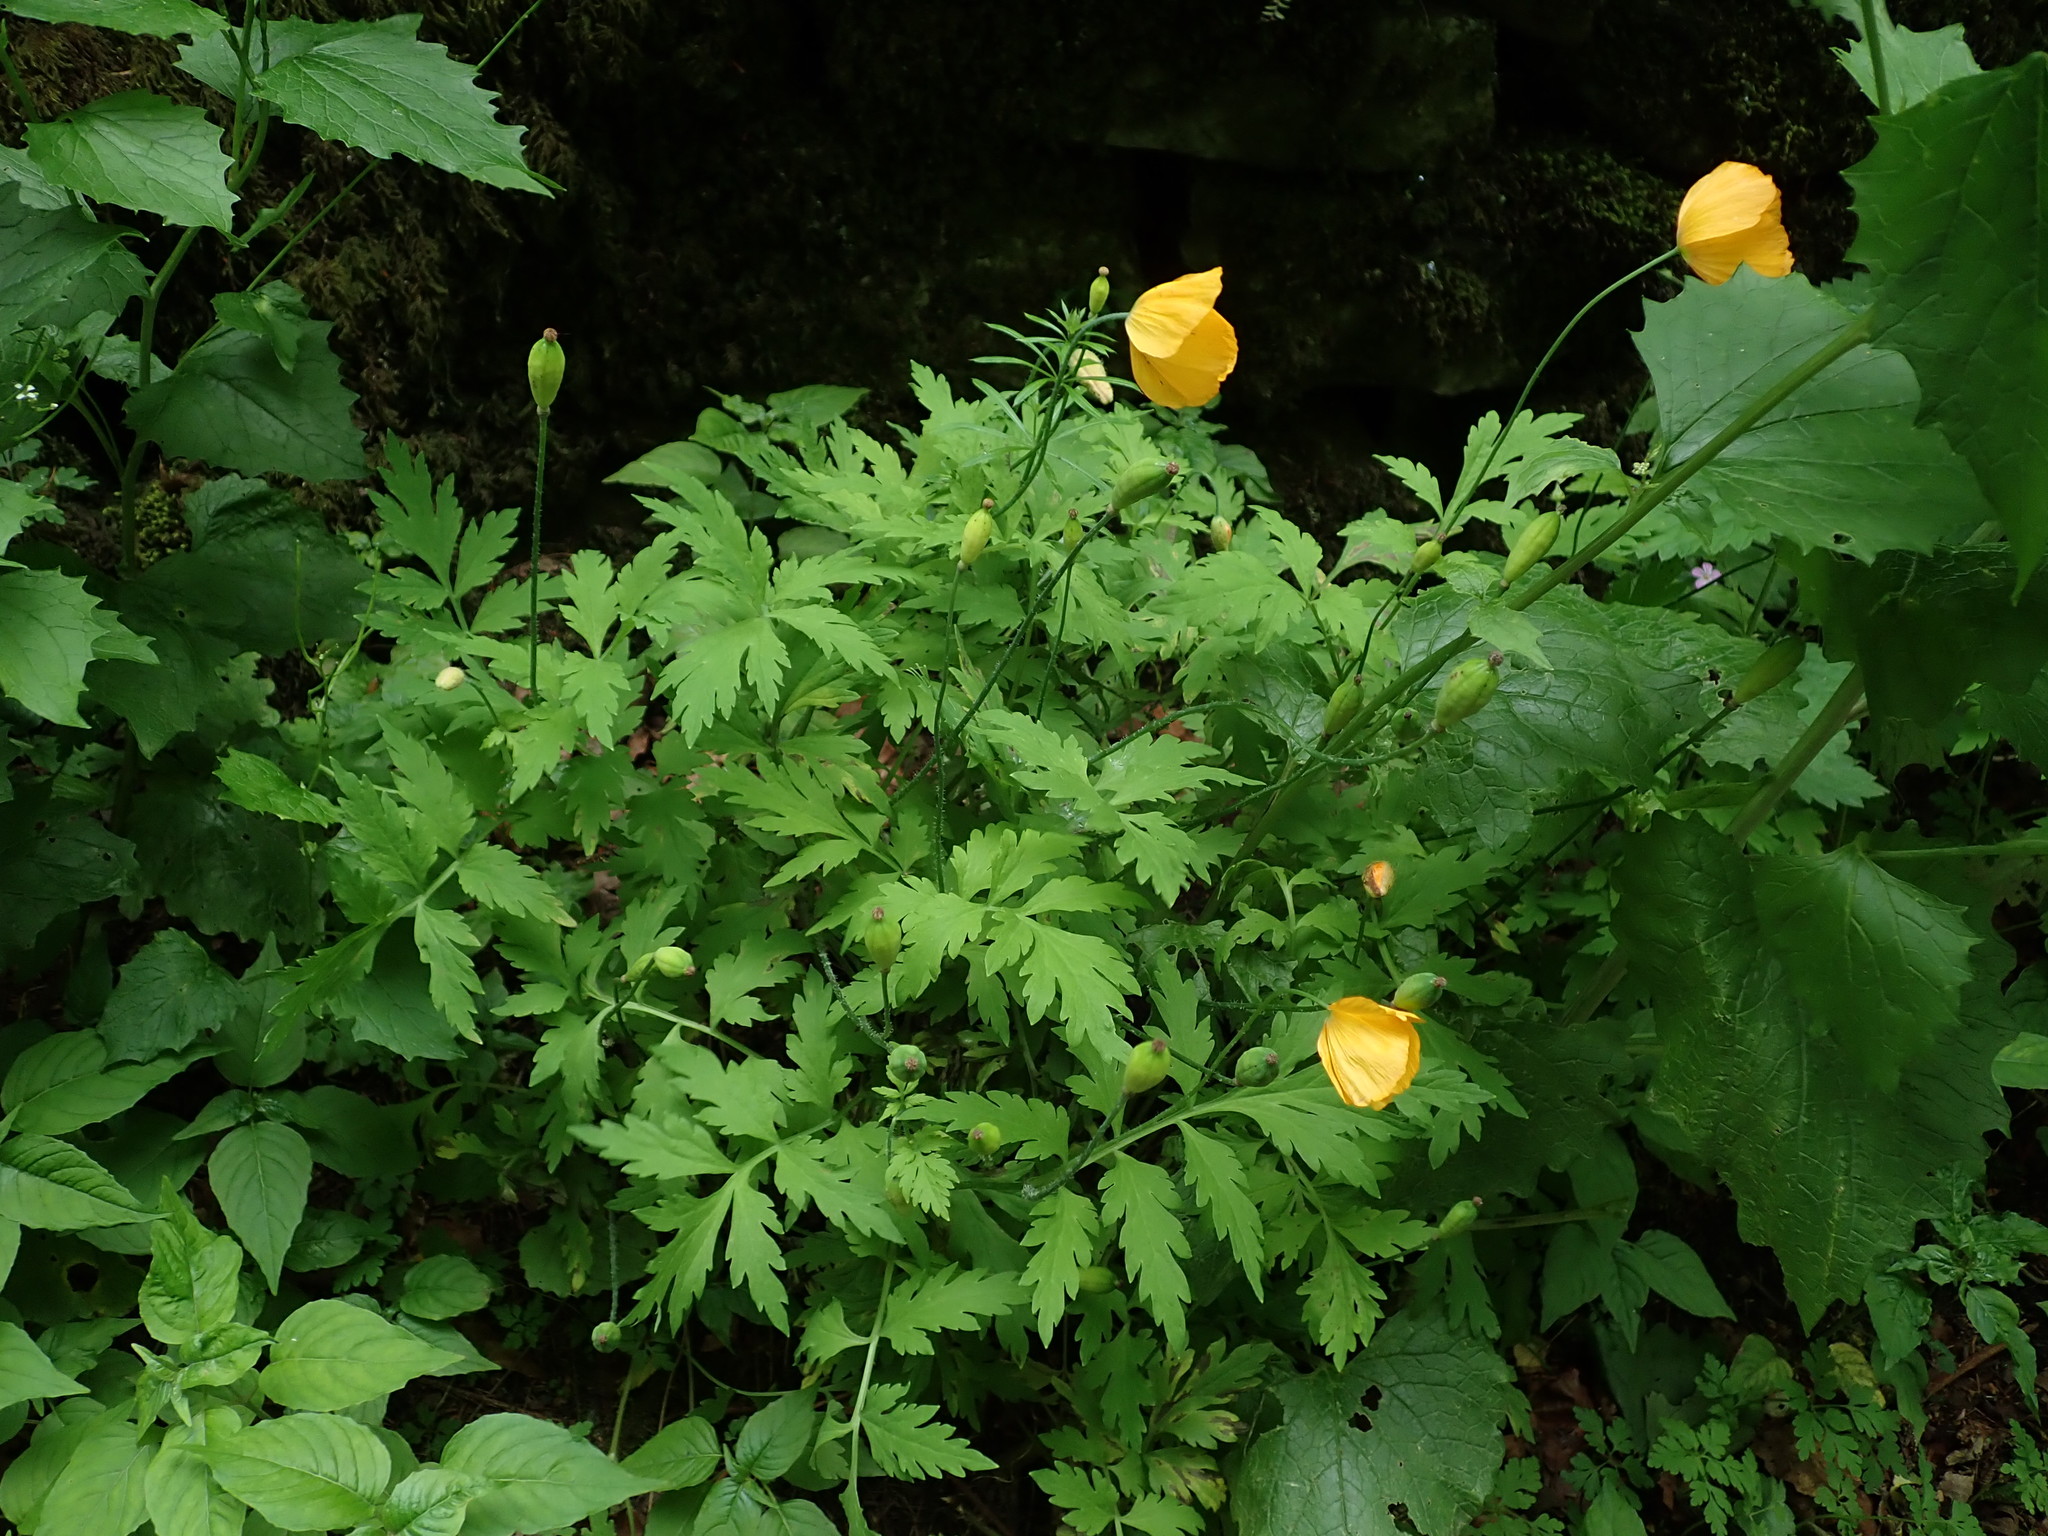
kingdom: Plantae
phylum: Tracheophyta
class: Magnoliopsida
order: Ranunculales
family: Papaveraceae
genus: Papaver
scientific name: Papaver cambricum
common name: Poppy
